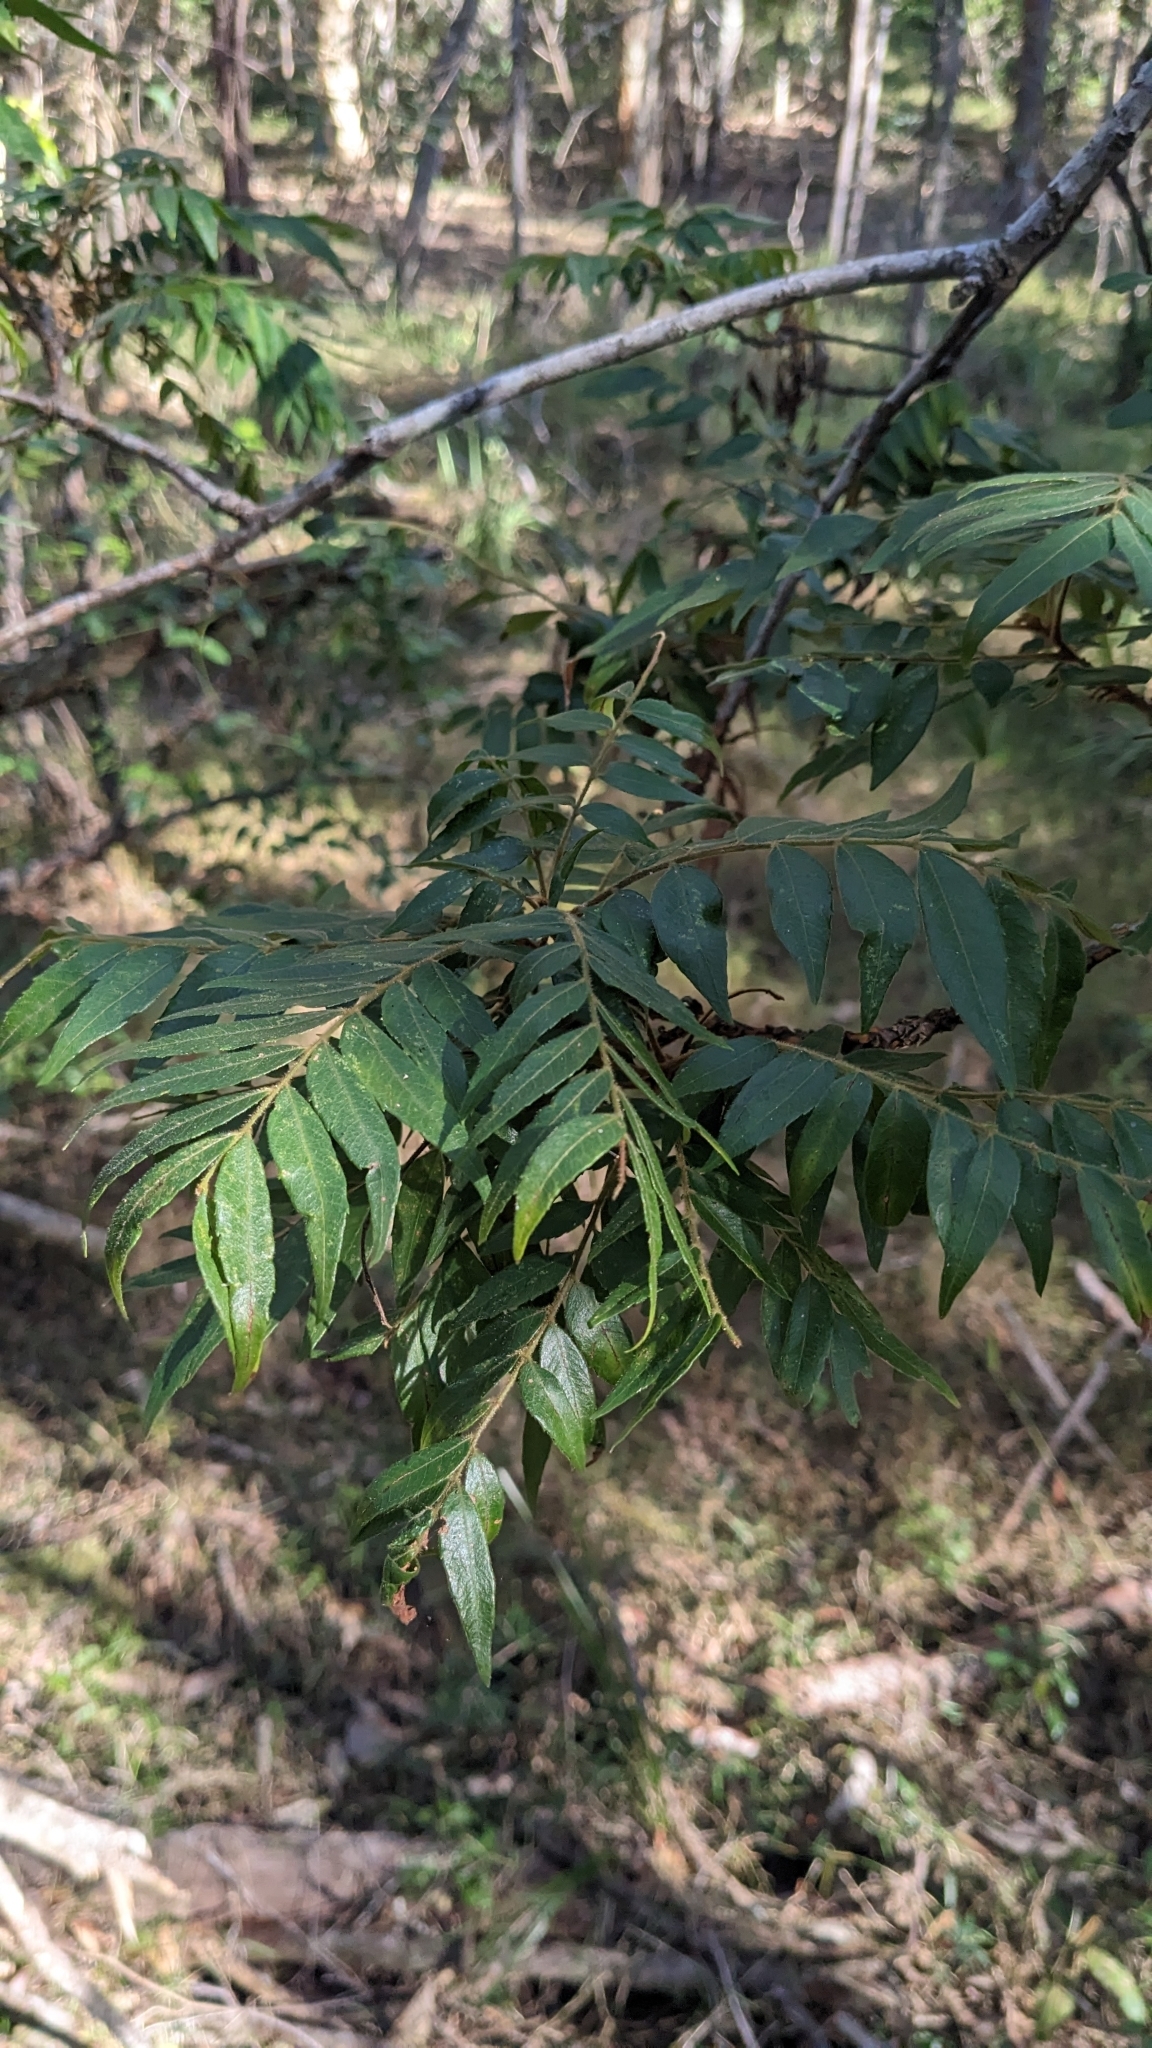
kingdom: Plantae
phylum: Tracheophyta
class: Magnoliopsida
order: Sapindales
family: Sapindaceae
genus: Jagera
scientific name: Jagera pseudorhus
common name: Fern-leaf-tamarind
